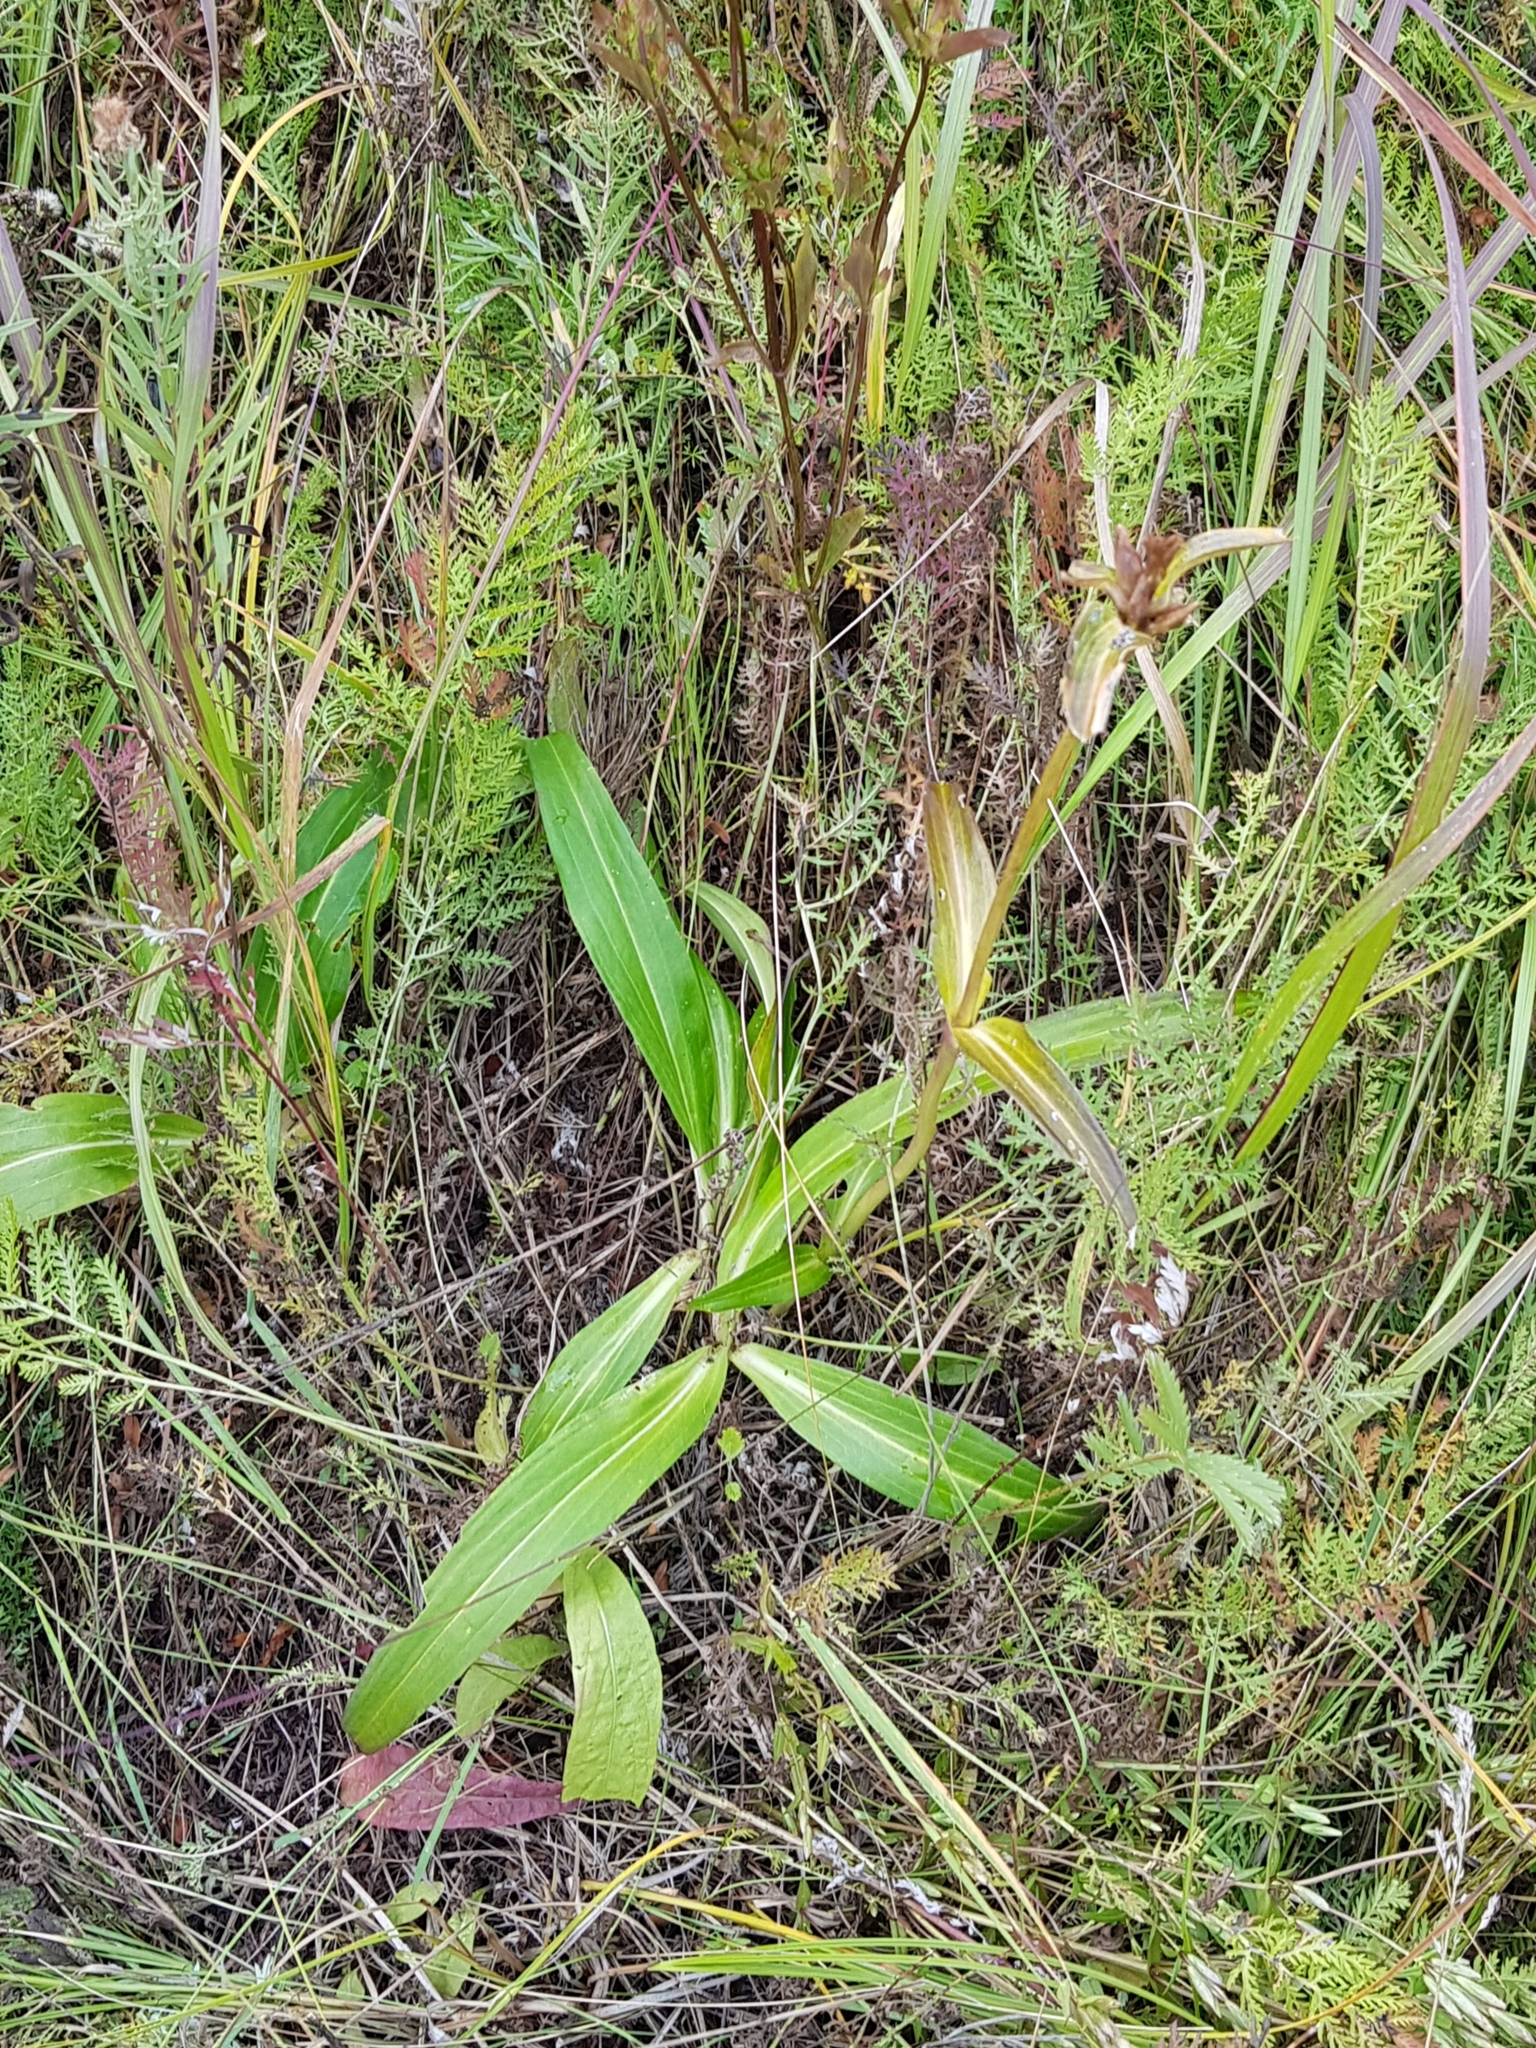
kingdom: Plantae
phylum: Tracheophyta
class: Magnoliopsida
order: Gentianales
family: Gentianaceae
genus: Gentiana
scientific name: Gentiana macrophylla
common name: Large-leaf gentian
